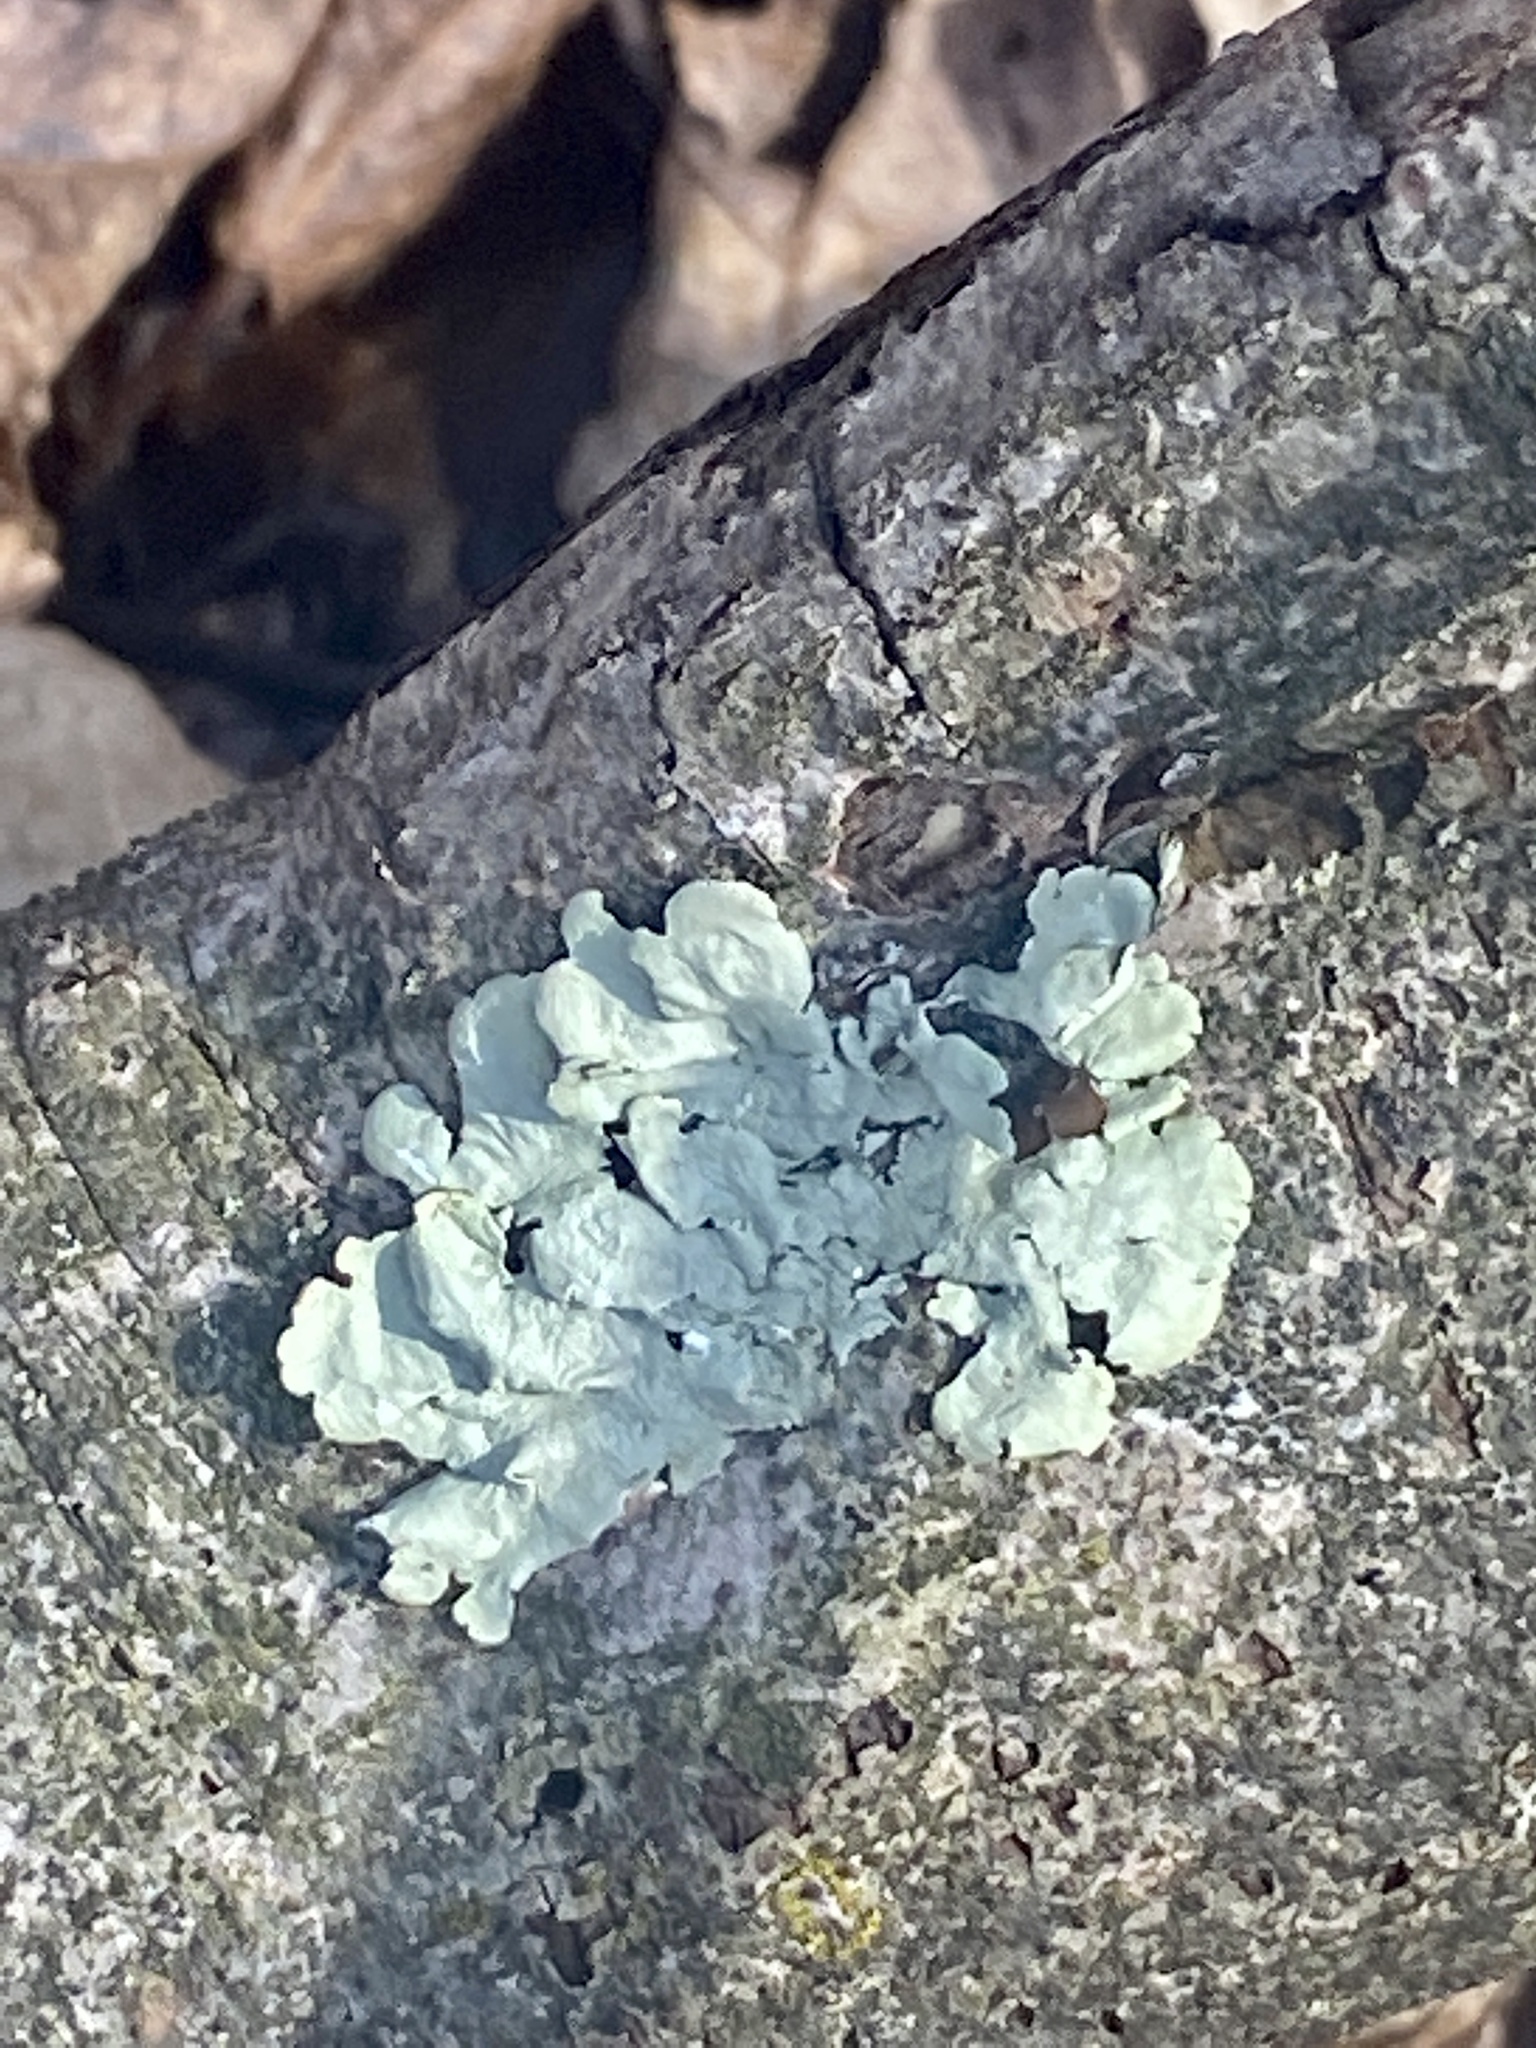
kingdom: Fungi
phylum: Ascomycota
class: Lecanoromycetes
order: Lecanorales
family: Parmeliaceae
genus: Flavoparmelia
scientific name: Flavoparmelia caperata
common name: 40-mile per hour lichen
